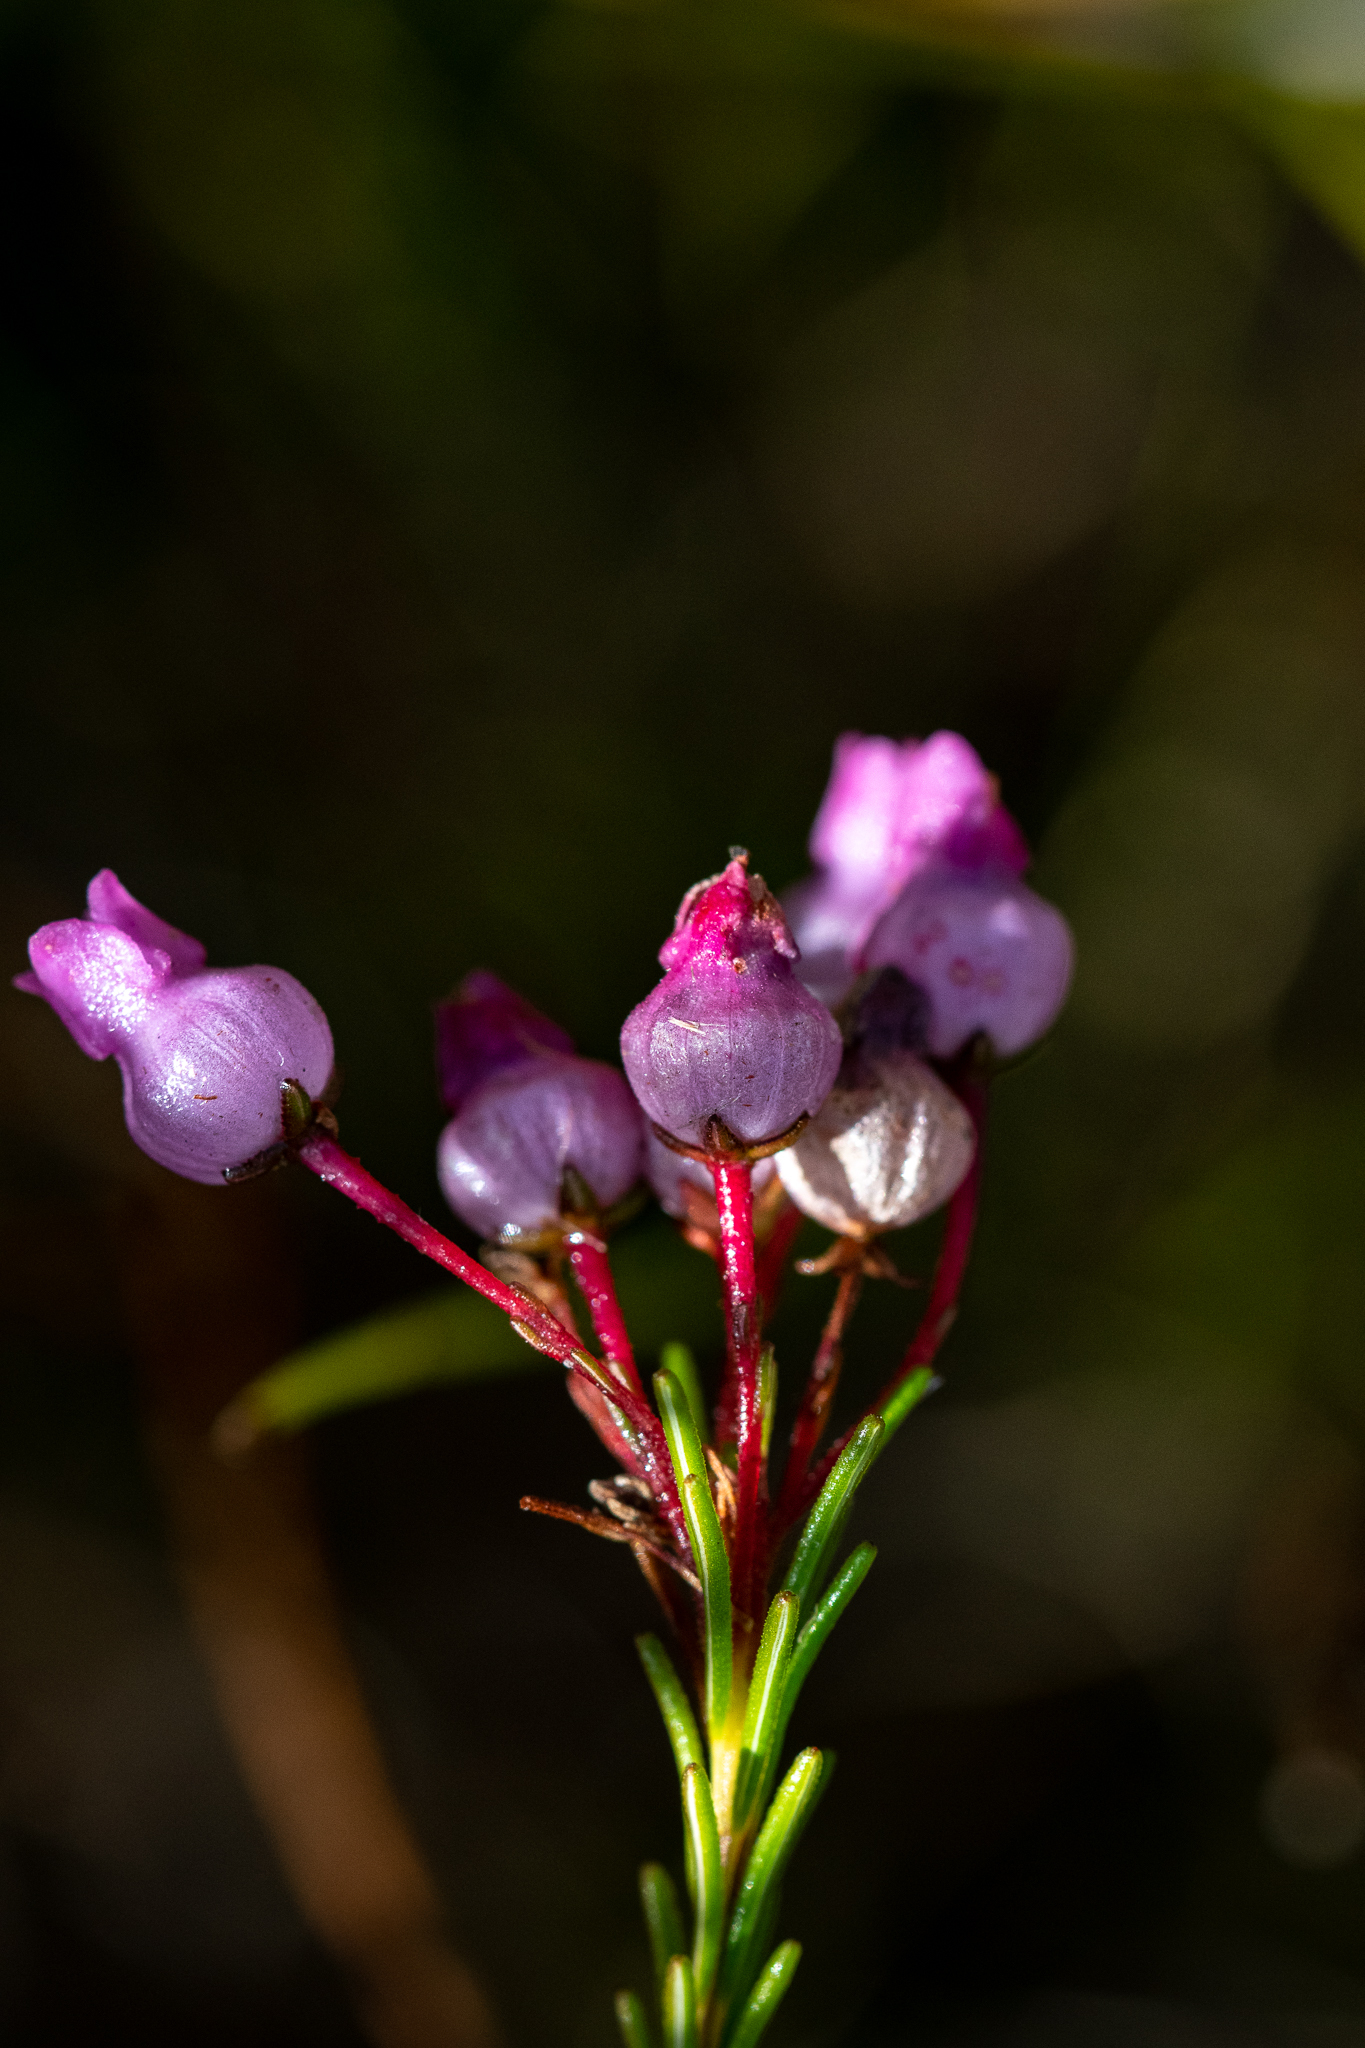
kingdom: Plantae
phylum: Tracheophyta
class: Magnoliopsida
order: Ericales
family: Ericaceae
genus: Erica
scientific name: Erica obliqua
